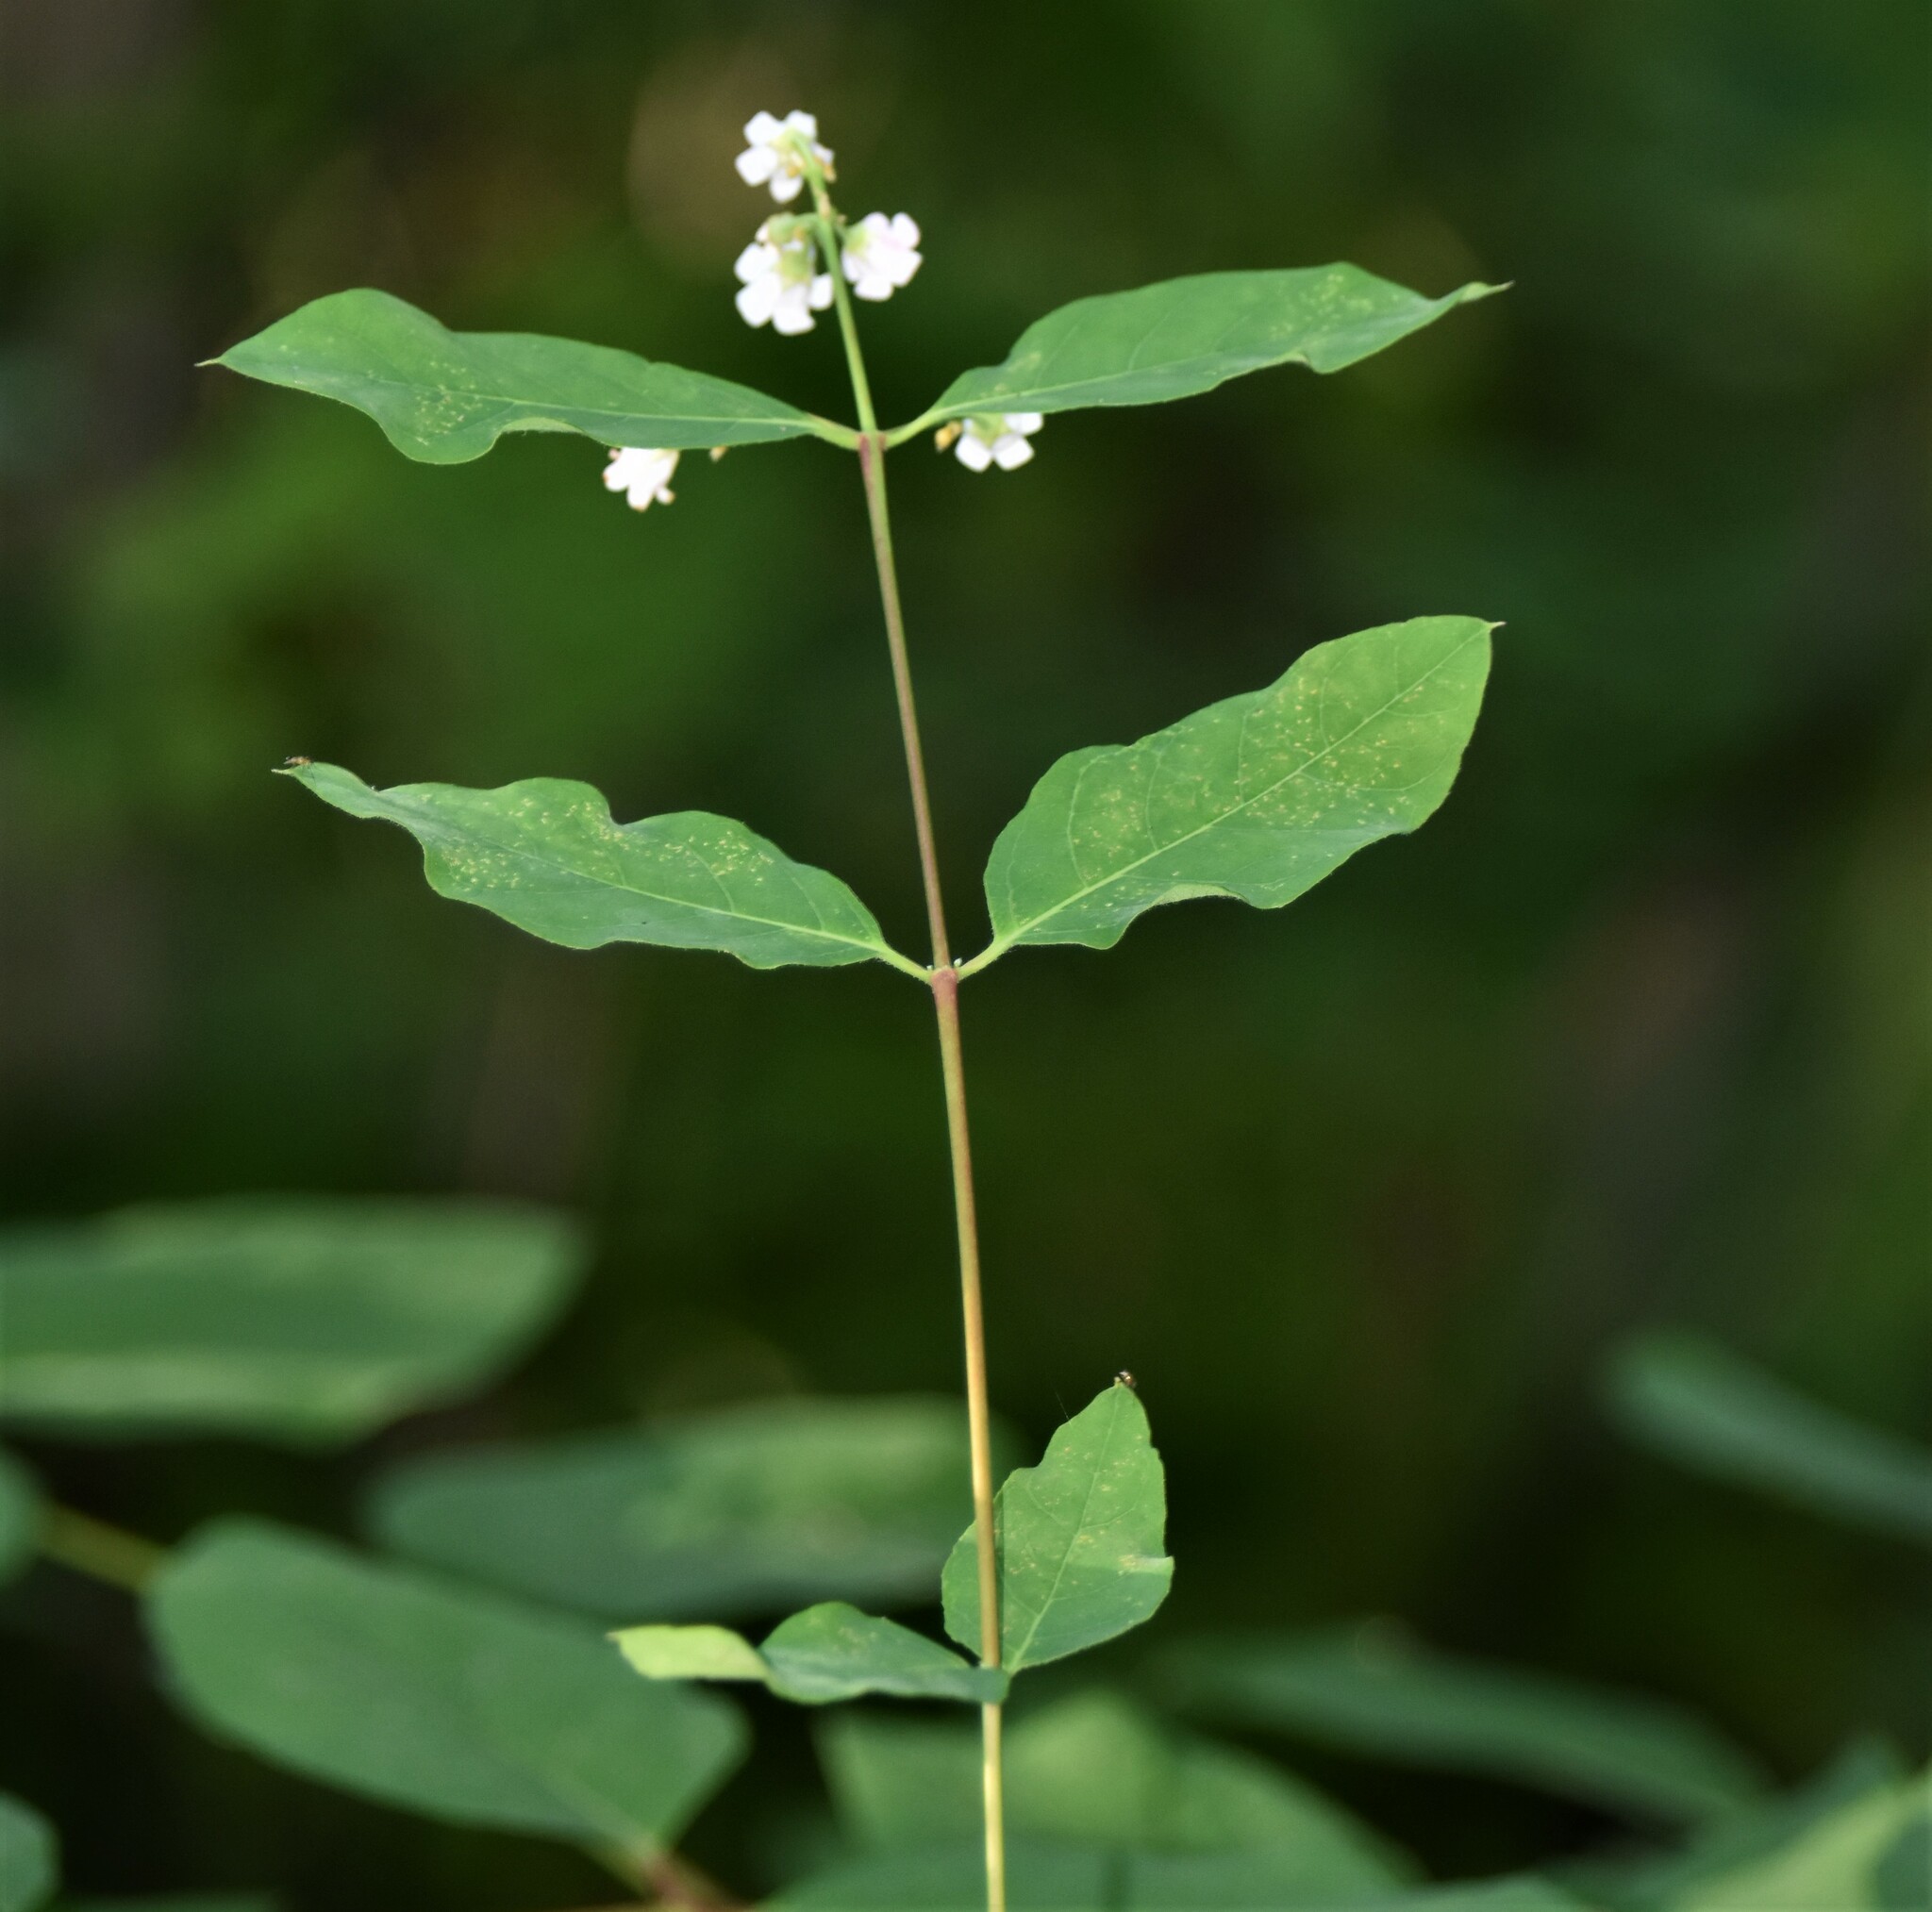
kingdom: Plantae
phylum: Tracheophyta
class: Magnoliopsida
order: Gentianales
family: Apocynaceae
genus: Apocynum
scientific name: Apocynum androsaemifolium
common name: Spreading dogbane
